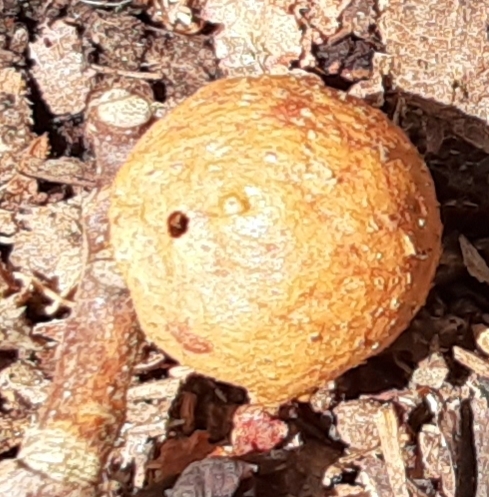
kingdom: Animalia
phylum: Arthropoda
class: Insecta
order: Hymenoptera
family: Cynipidae
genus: Disholcaspis
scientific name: Disholcaspis quercusglobulus
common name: Round bullet gall wasp
